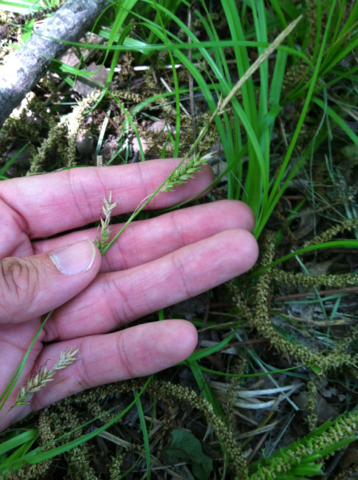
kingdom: Plantae
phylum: Tracheophyta
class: Liliopsida
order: Poales
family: Cyperaceae
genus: Carex
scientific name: Carex cherokeensis
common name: Cherokee sedge
